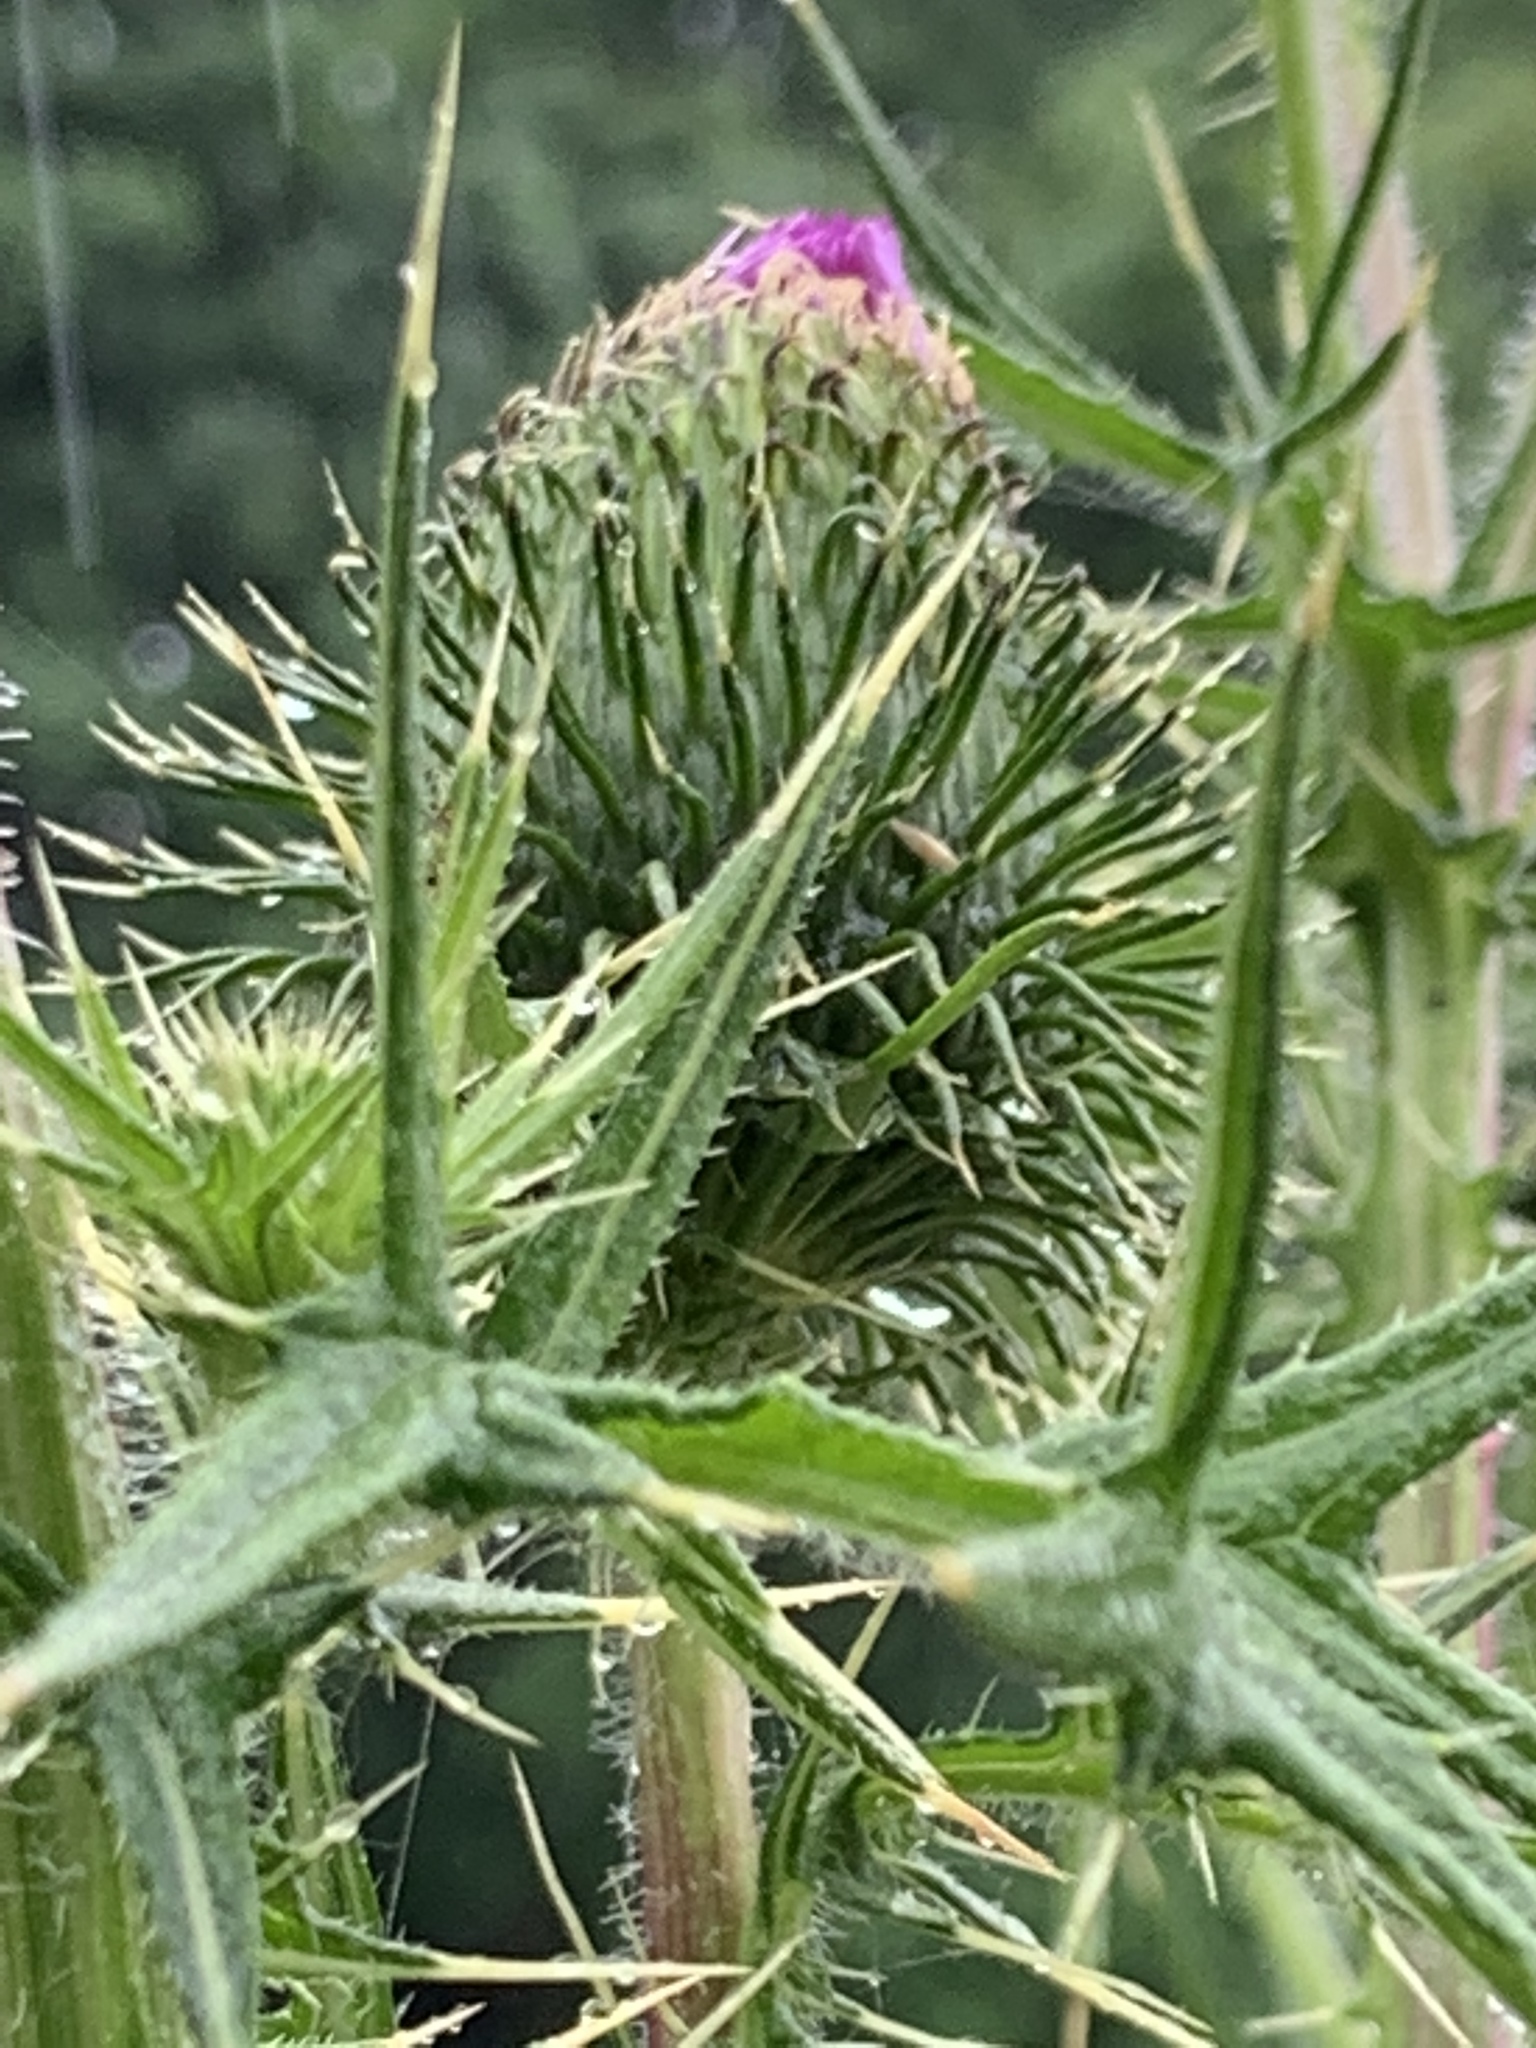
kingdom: Plantae
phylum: Tracheophyta
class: Magnoliopsida
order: Asterales
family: Asteraceae
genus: Cirsium
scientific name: Cirsium vulgare
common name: Bull thistle
